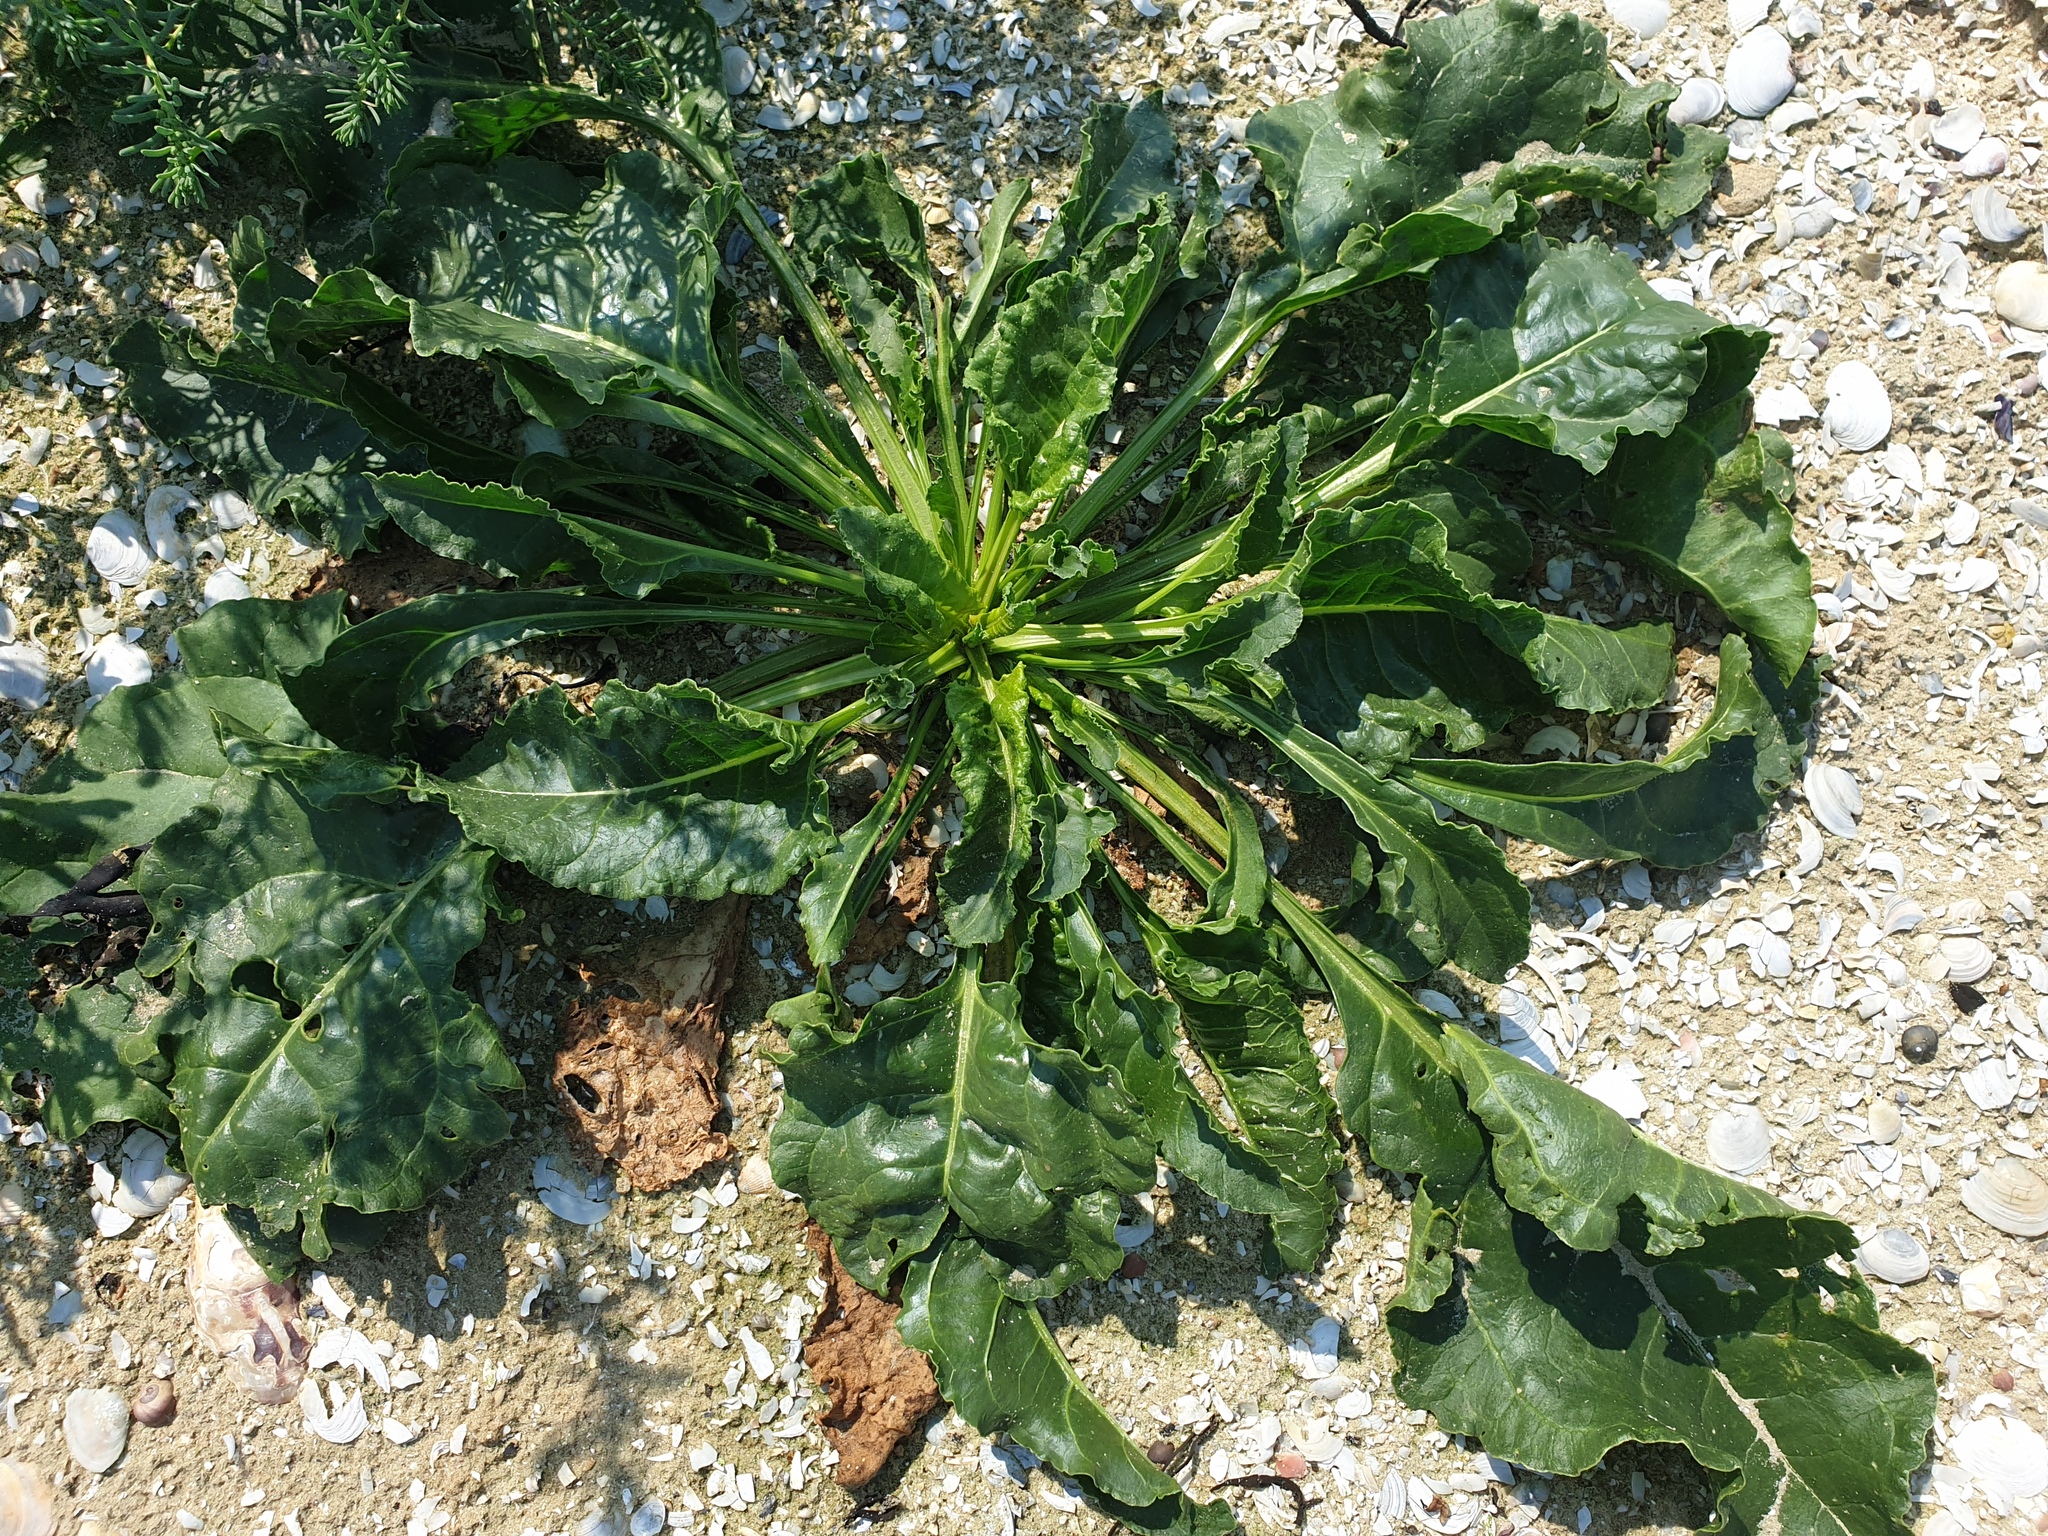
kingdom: Plantae
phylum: Tracheophyta
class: Magnoliopsida
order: Caryophyllales
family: Amaranthaceae
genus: Beta
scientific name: Beta vulgaris
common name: Beet
